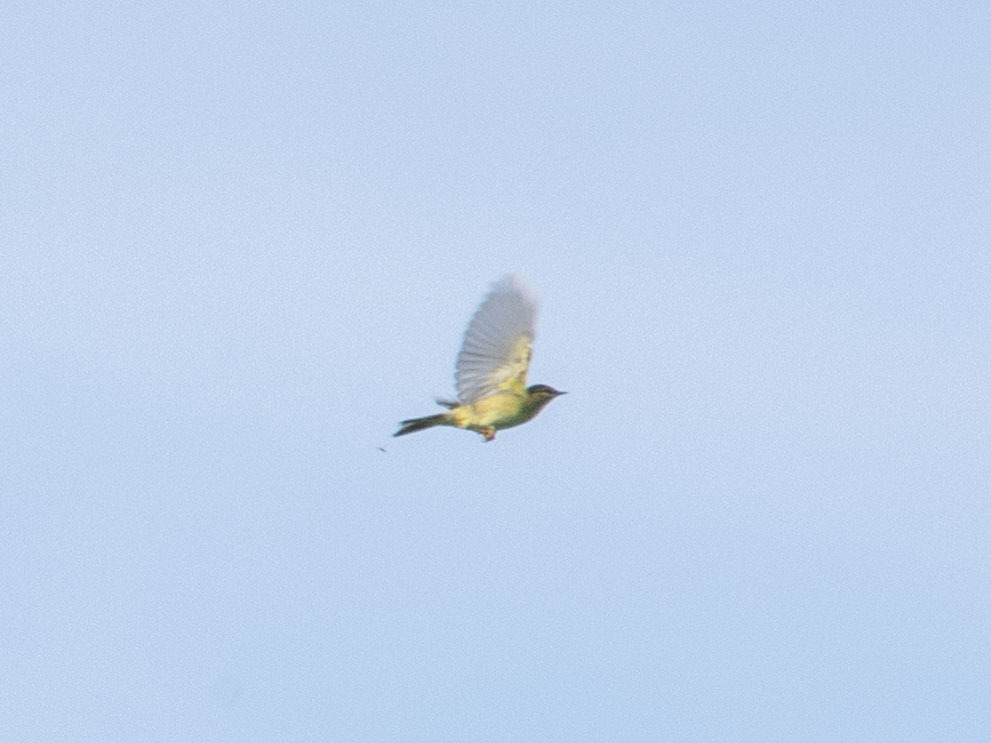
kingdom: Animalia
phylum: Chordata
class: Aves
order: Passeriformes
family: Phylloscopidae
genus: Phylloscopus
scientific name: Phylloscopus trochilus
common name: Willow warbler
